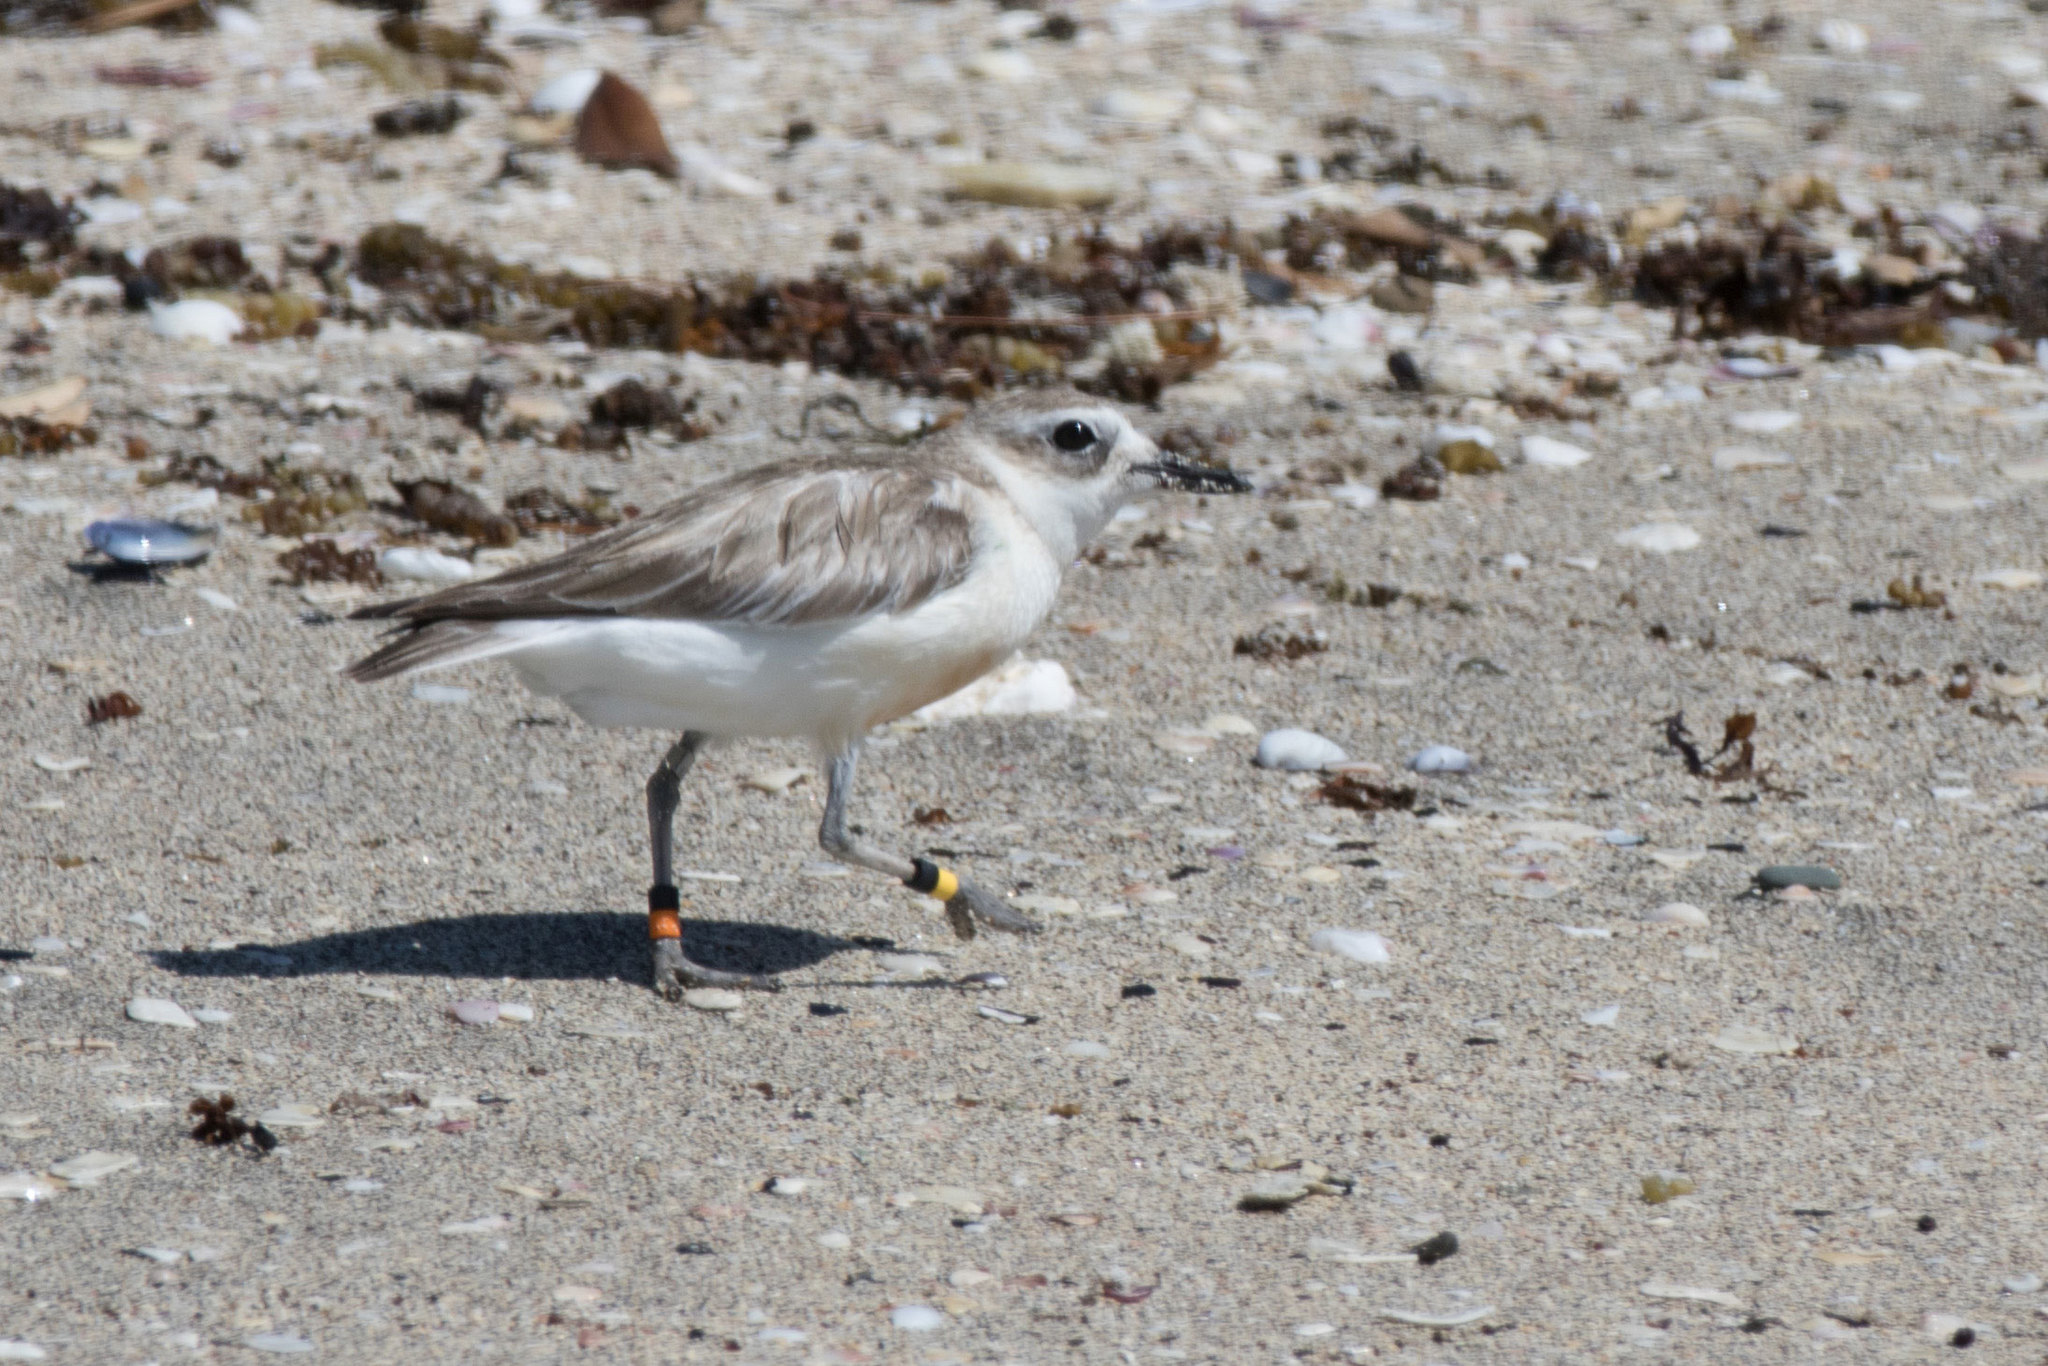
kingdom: Animalia
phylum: Chordata
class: Aves
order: Charadriiformes
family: Charadriidae
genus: Anarhynchus
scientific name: Anarhynchus
